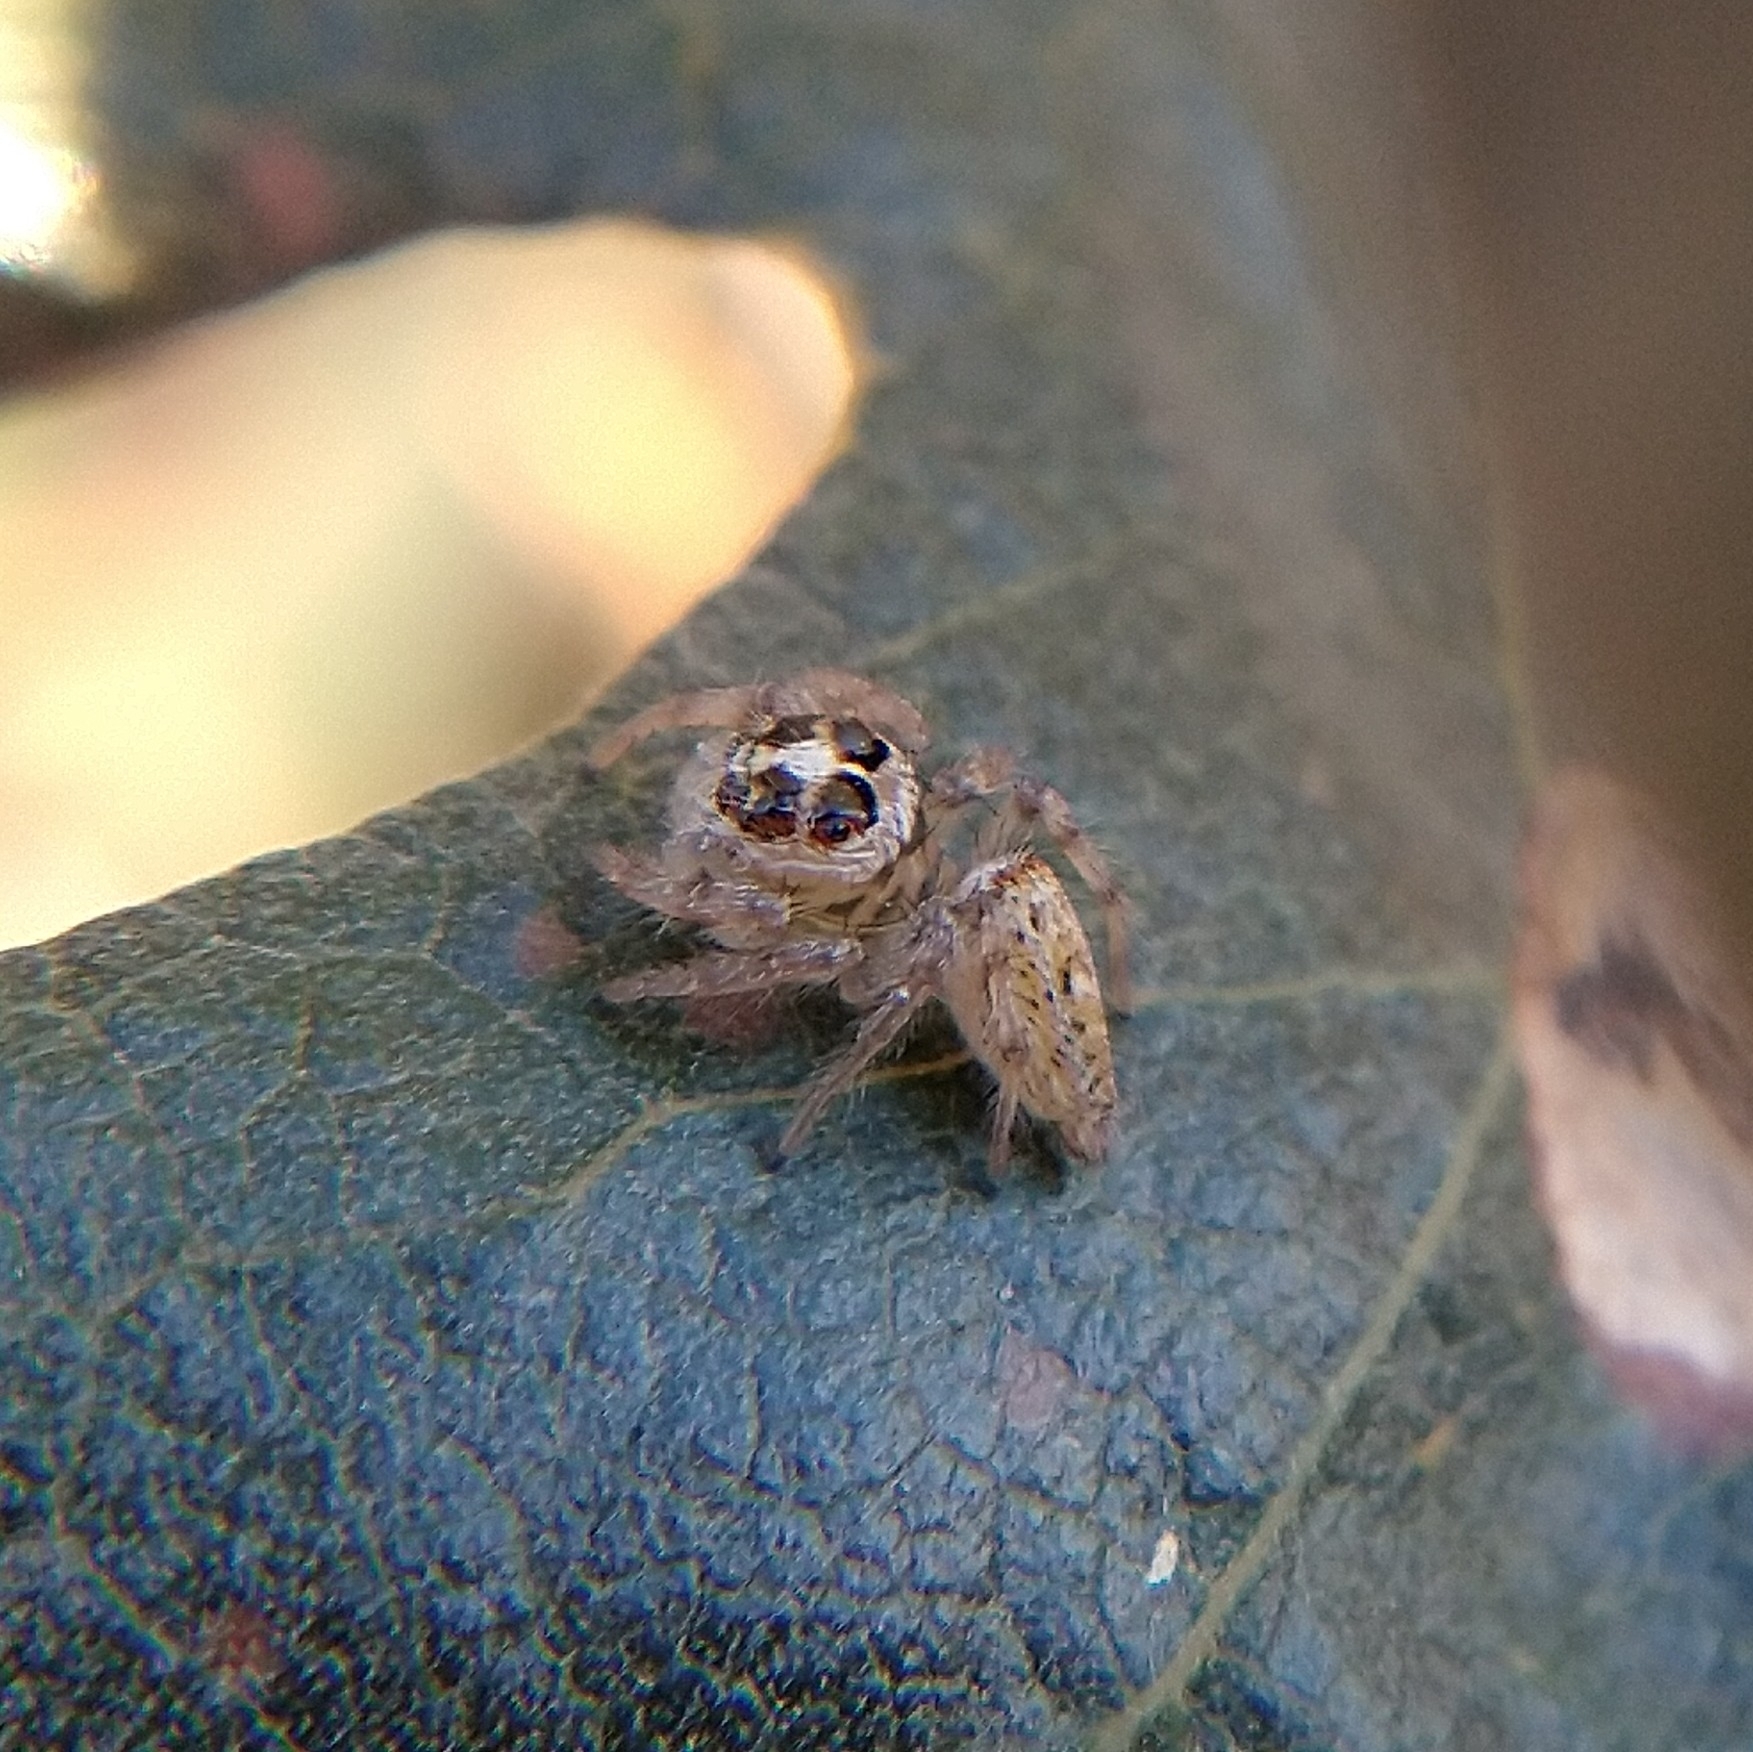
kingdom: Animalia
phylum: Arthropoda
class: Arachnida
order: Araneae
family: Salticidae
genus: Colonus
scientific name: Colonus hesperus
